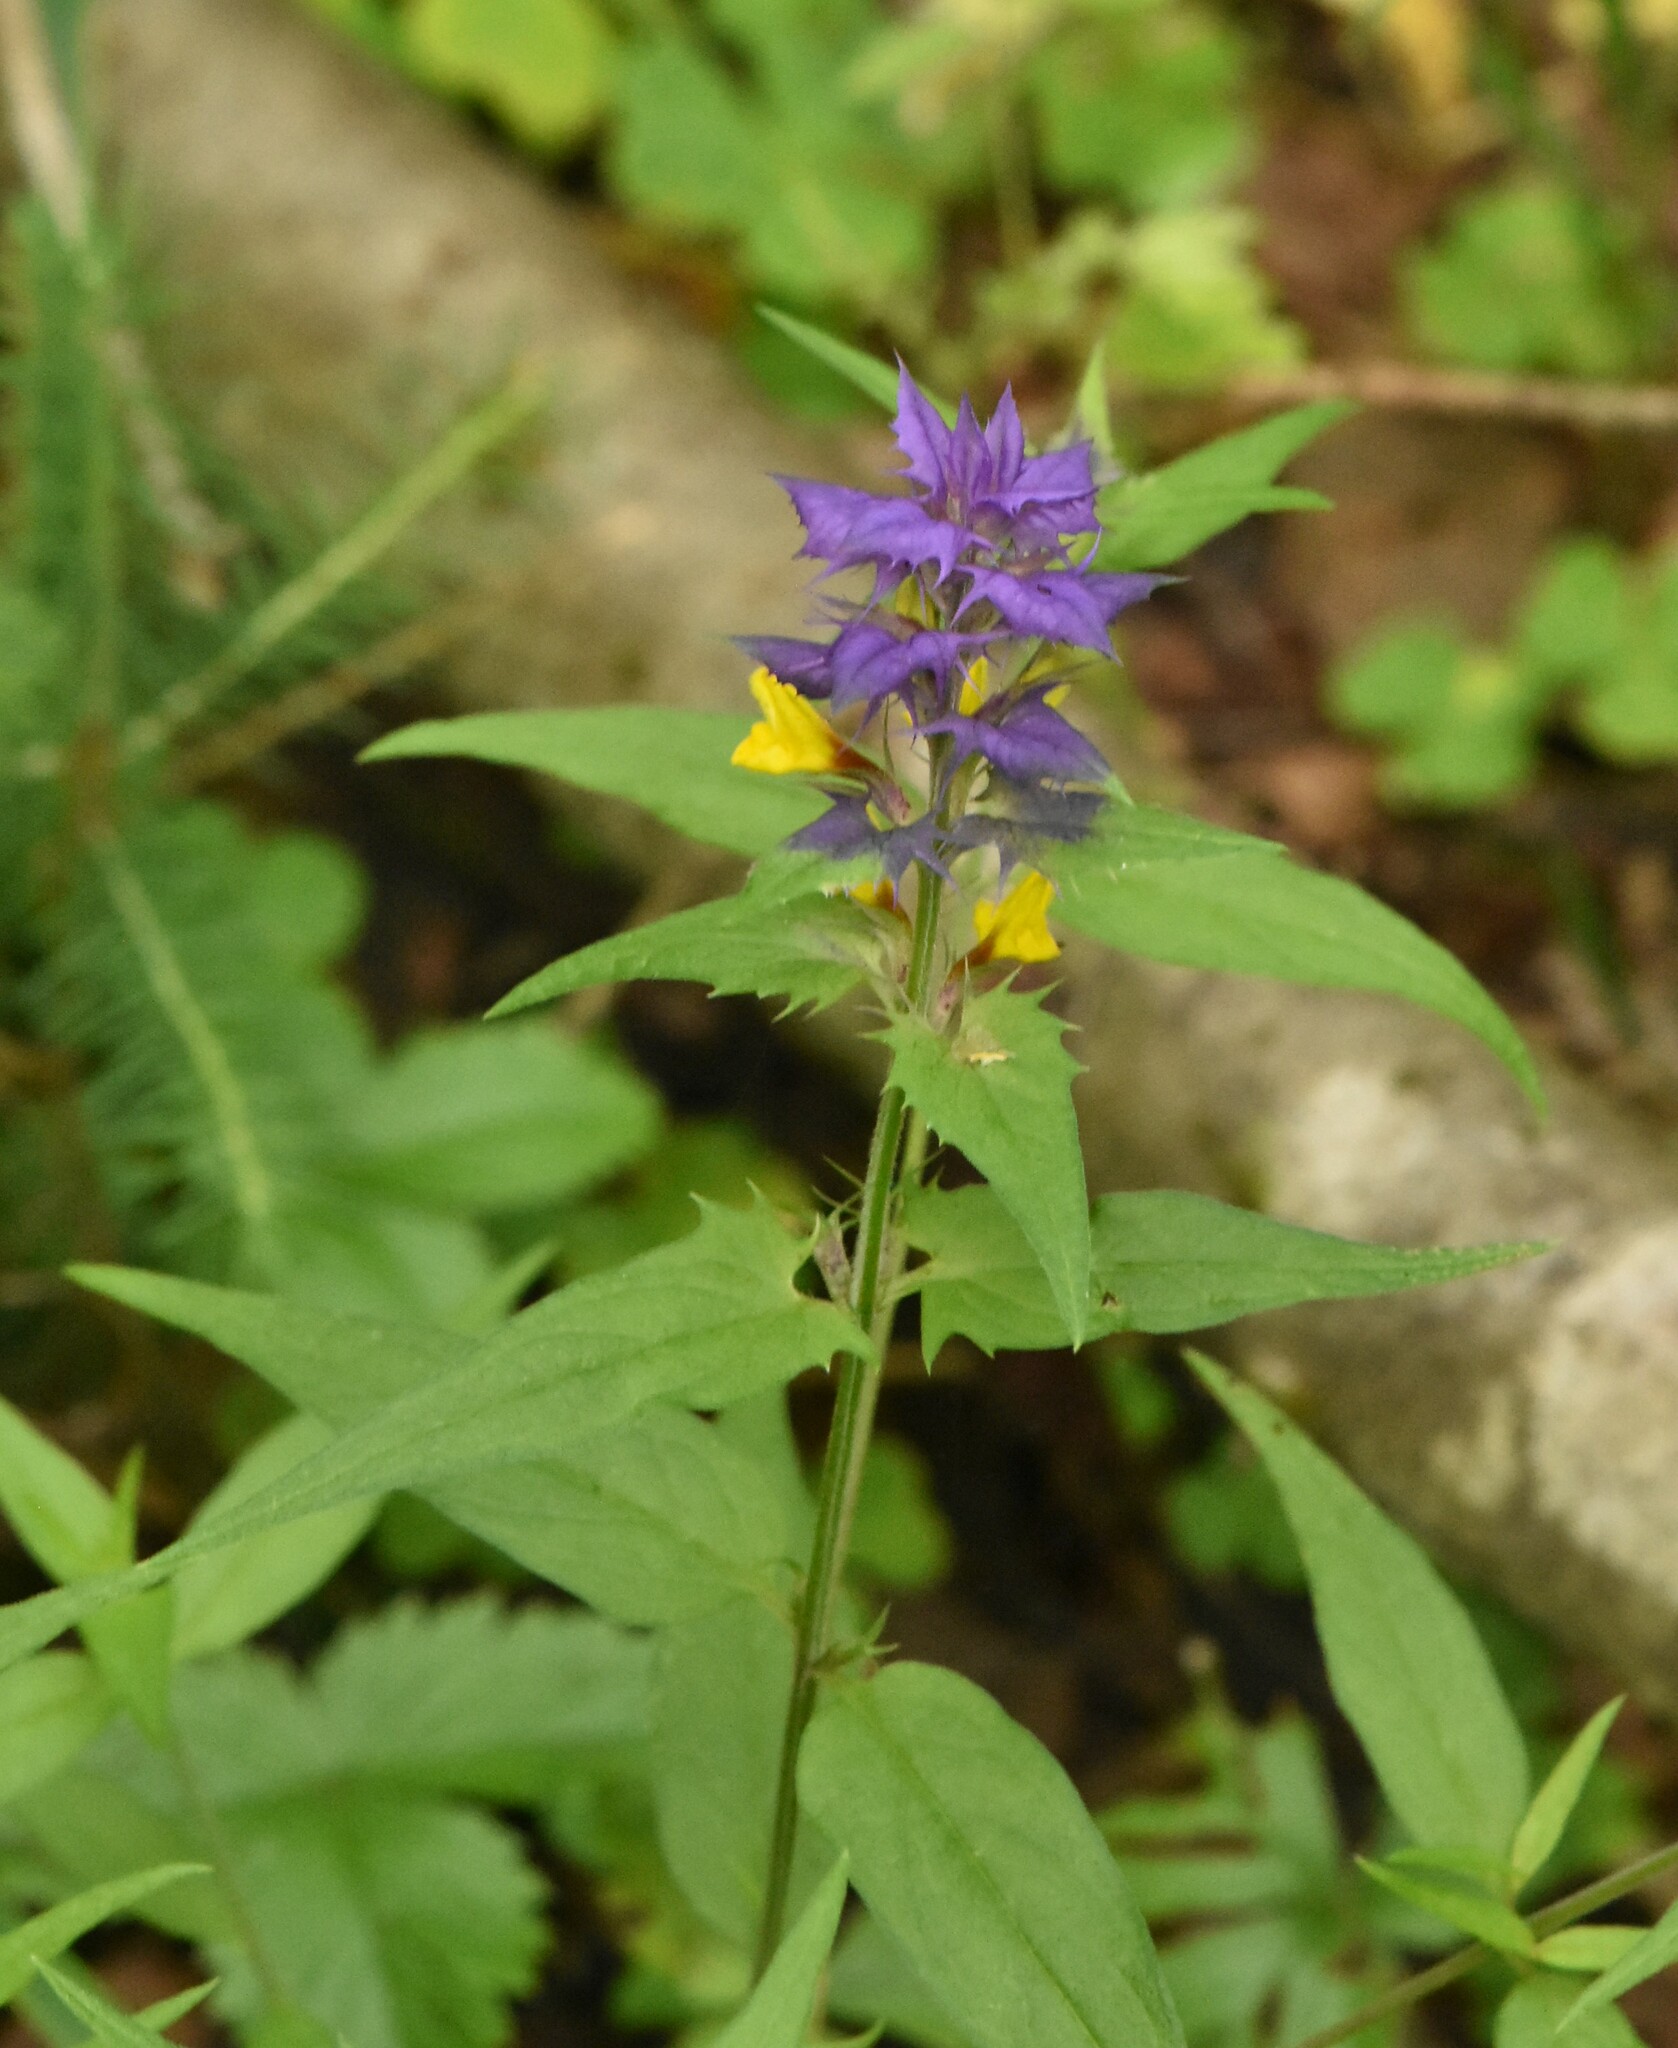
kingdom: Plantae
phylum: Tracheophyta
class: Magnoliopsida
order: Lamiales
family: Orobanchaceae
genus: Melampyrum
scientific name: Melampyrum nemorosum
